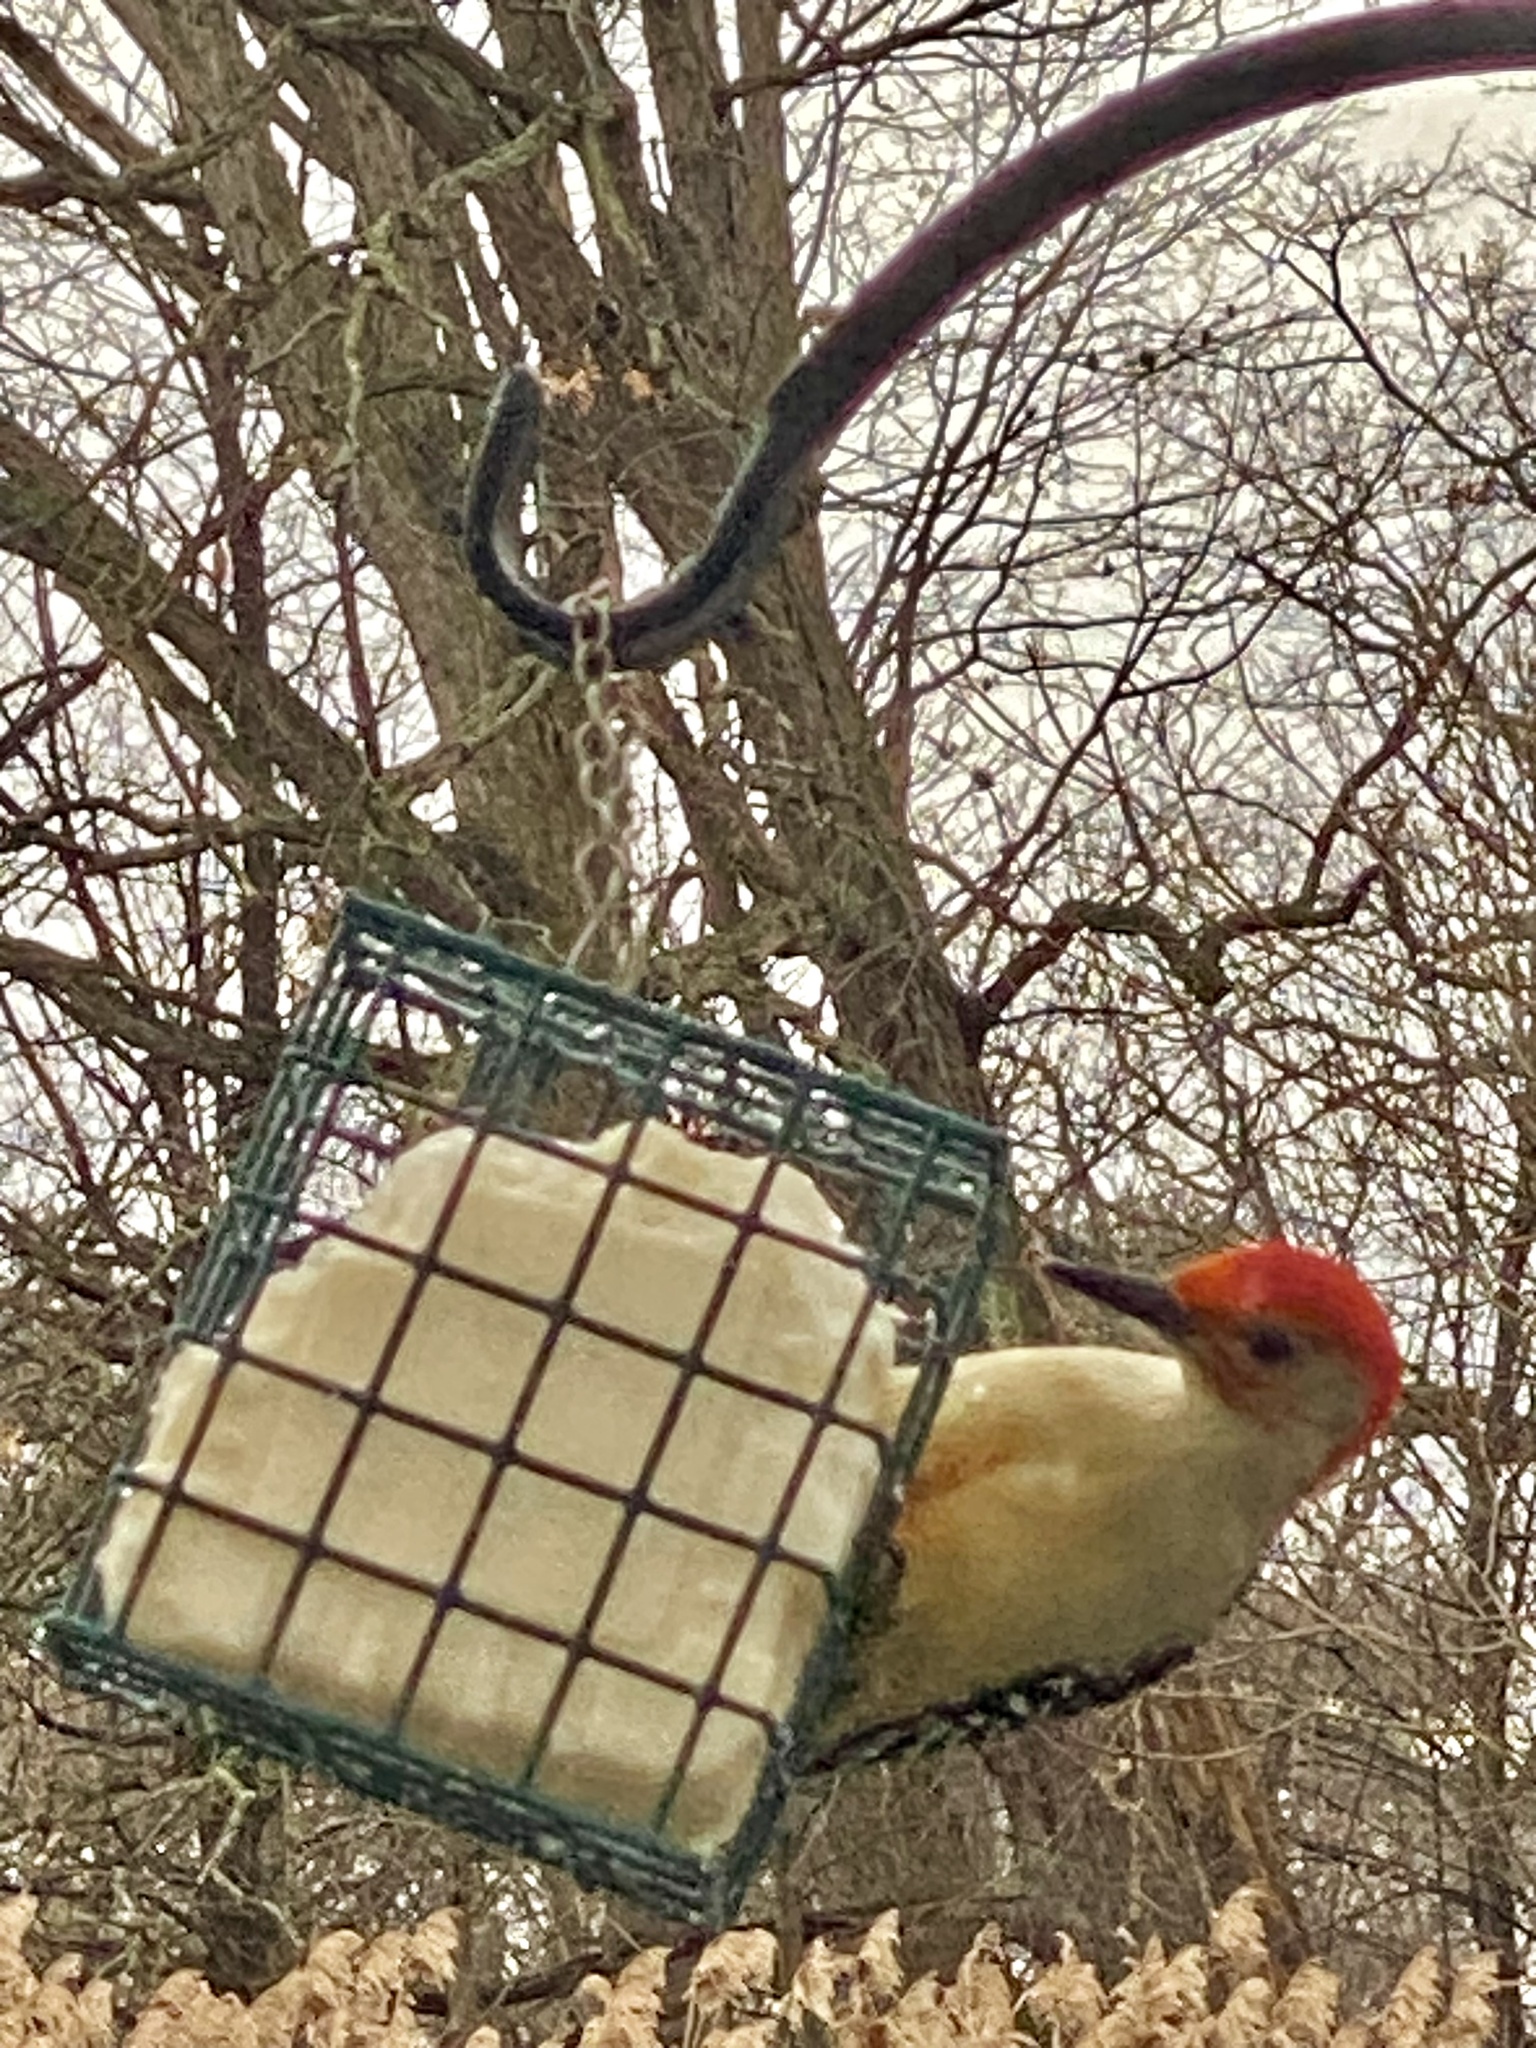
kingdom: Animalia
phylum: Chordata
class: Aves
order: Piciformes
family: Picidae
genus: Melanerpes
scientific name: Melanerpes carolinus
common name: Red-bellied woodpecker
